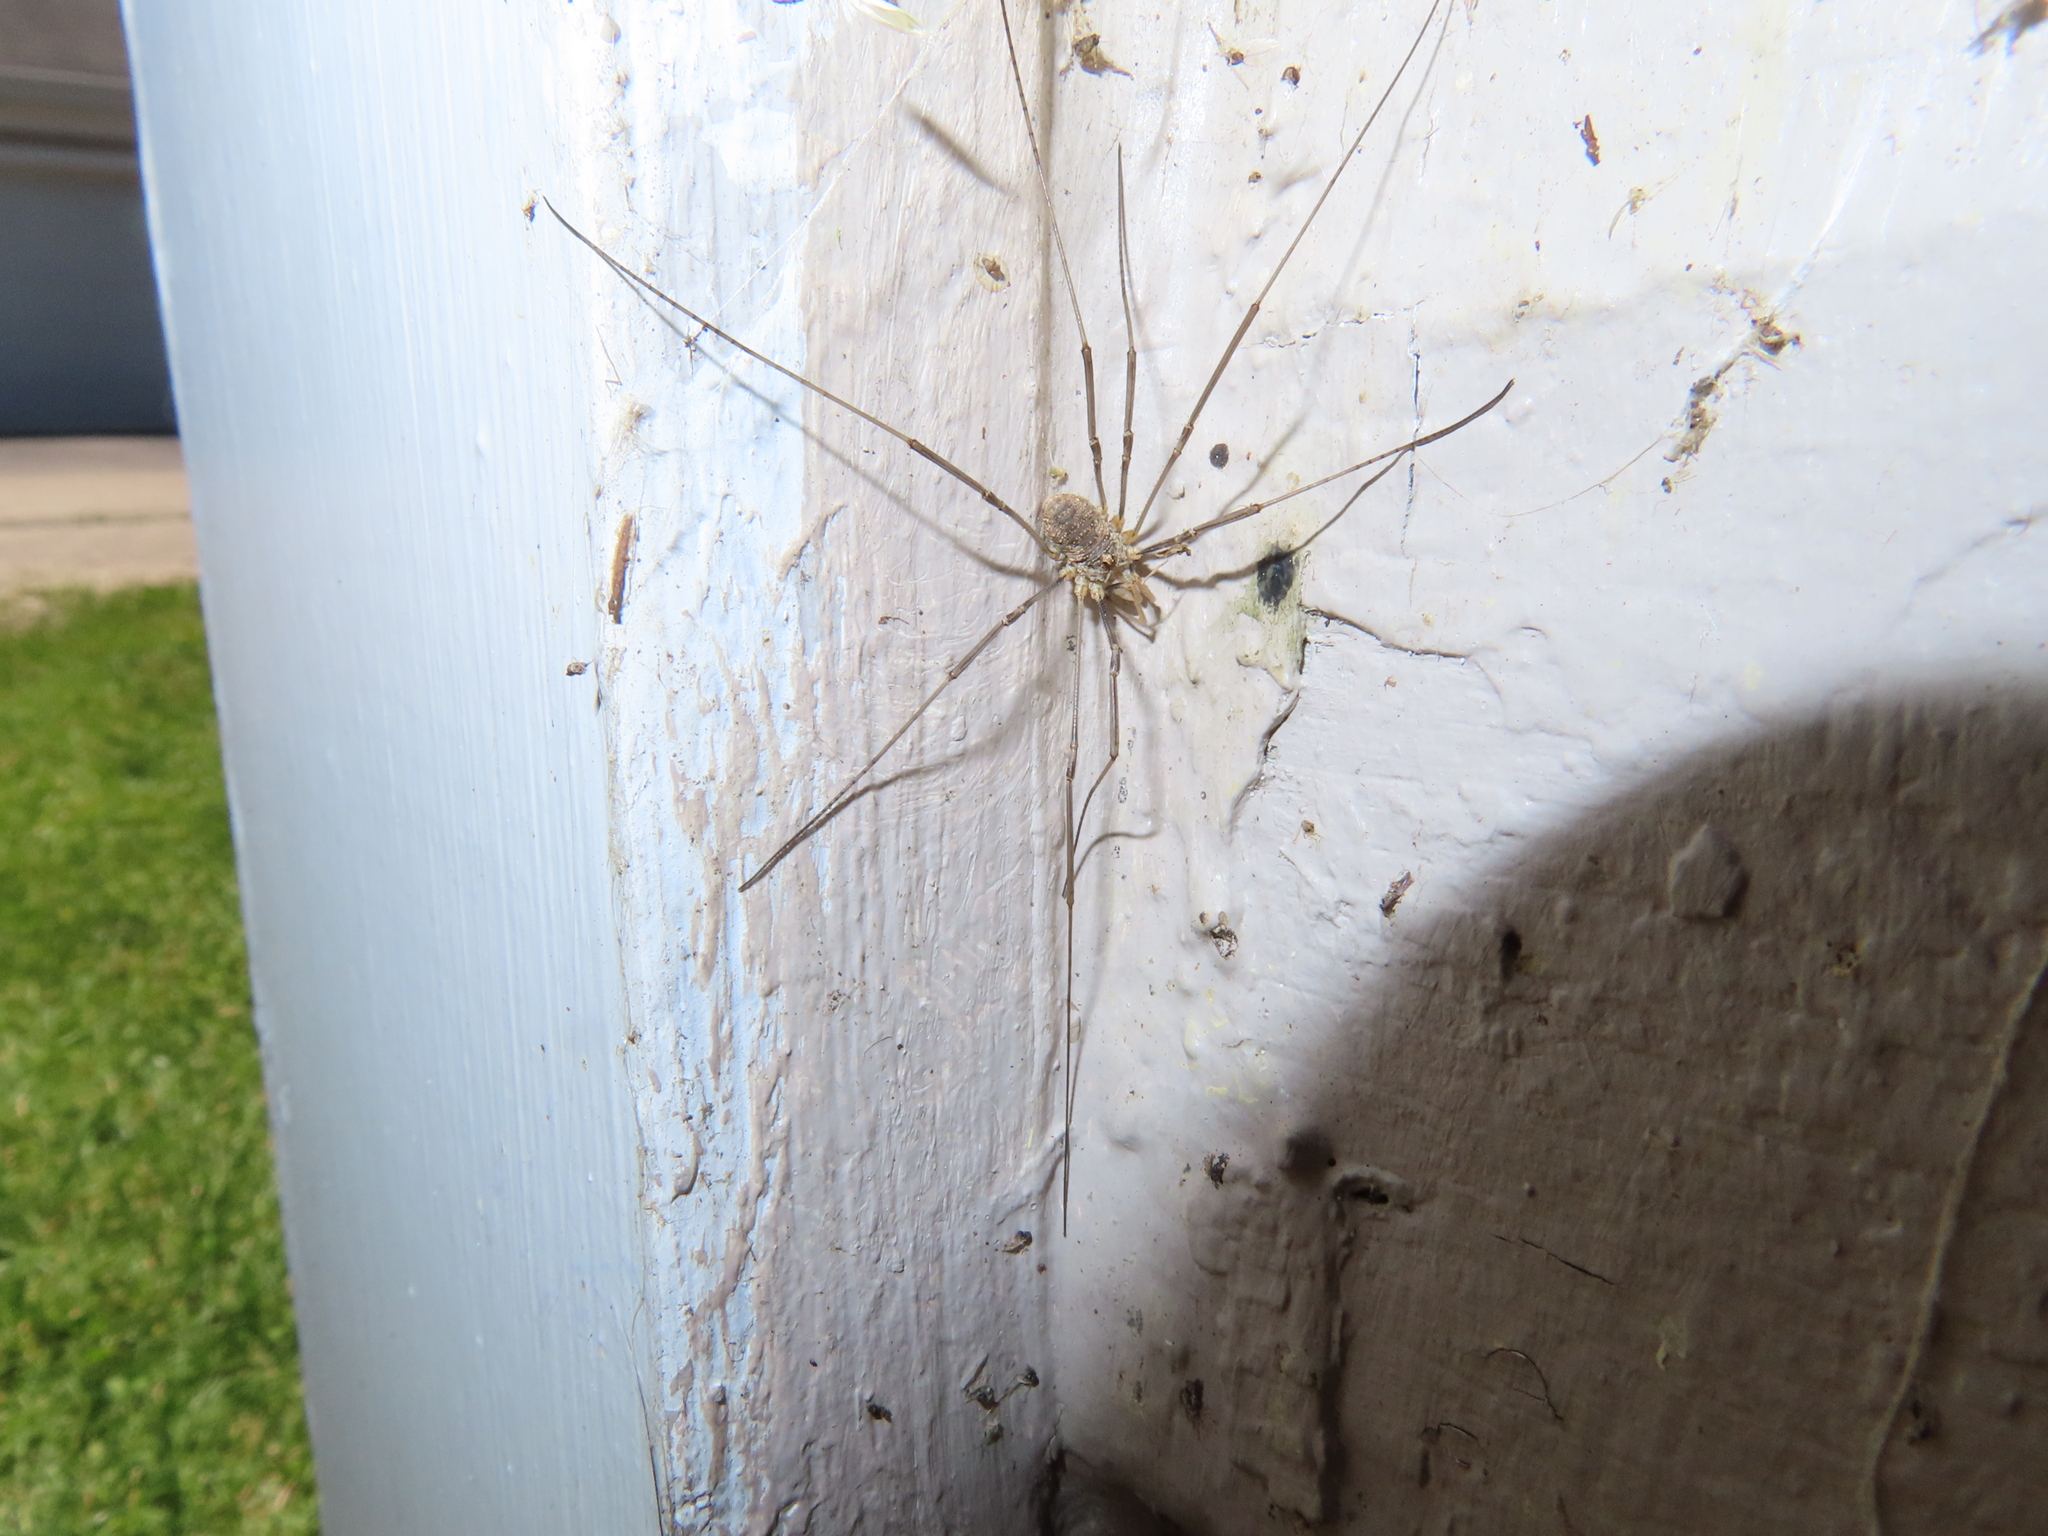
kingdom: Animalia
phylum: Arthropoda
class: Arachnida
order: Opiliones
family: Phalangiidae
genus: Phalangium
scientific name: Phalangium opilio
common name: Daddy longleg
